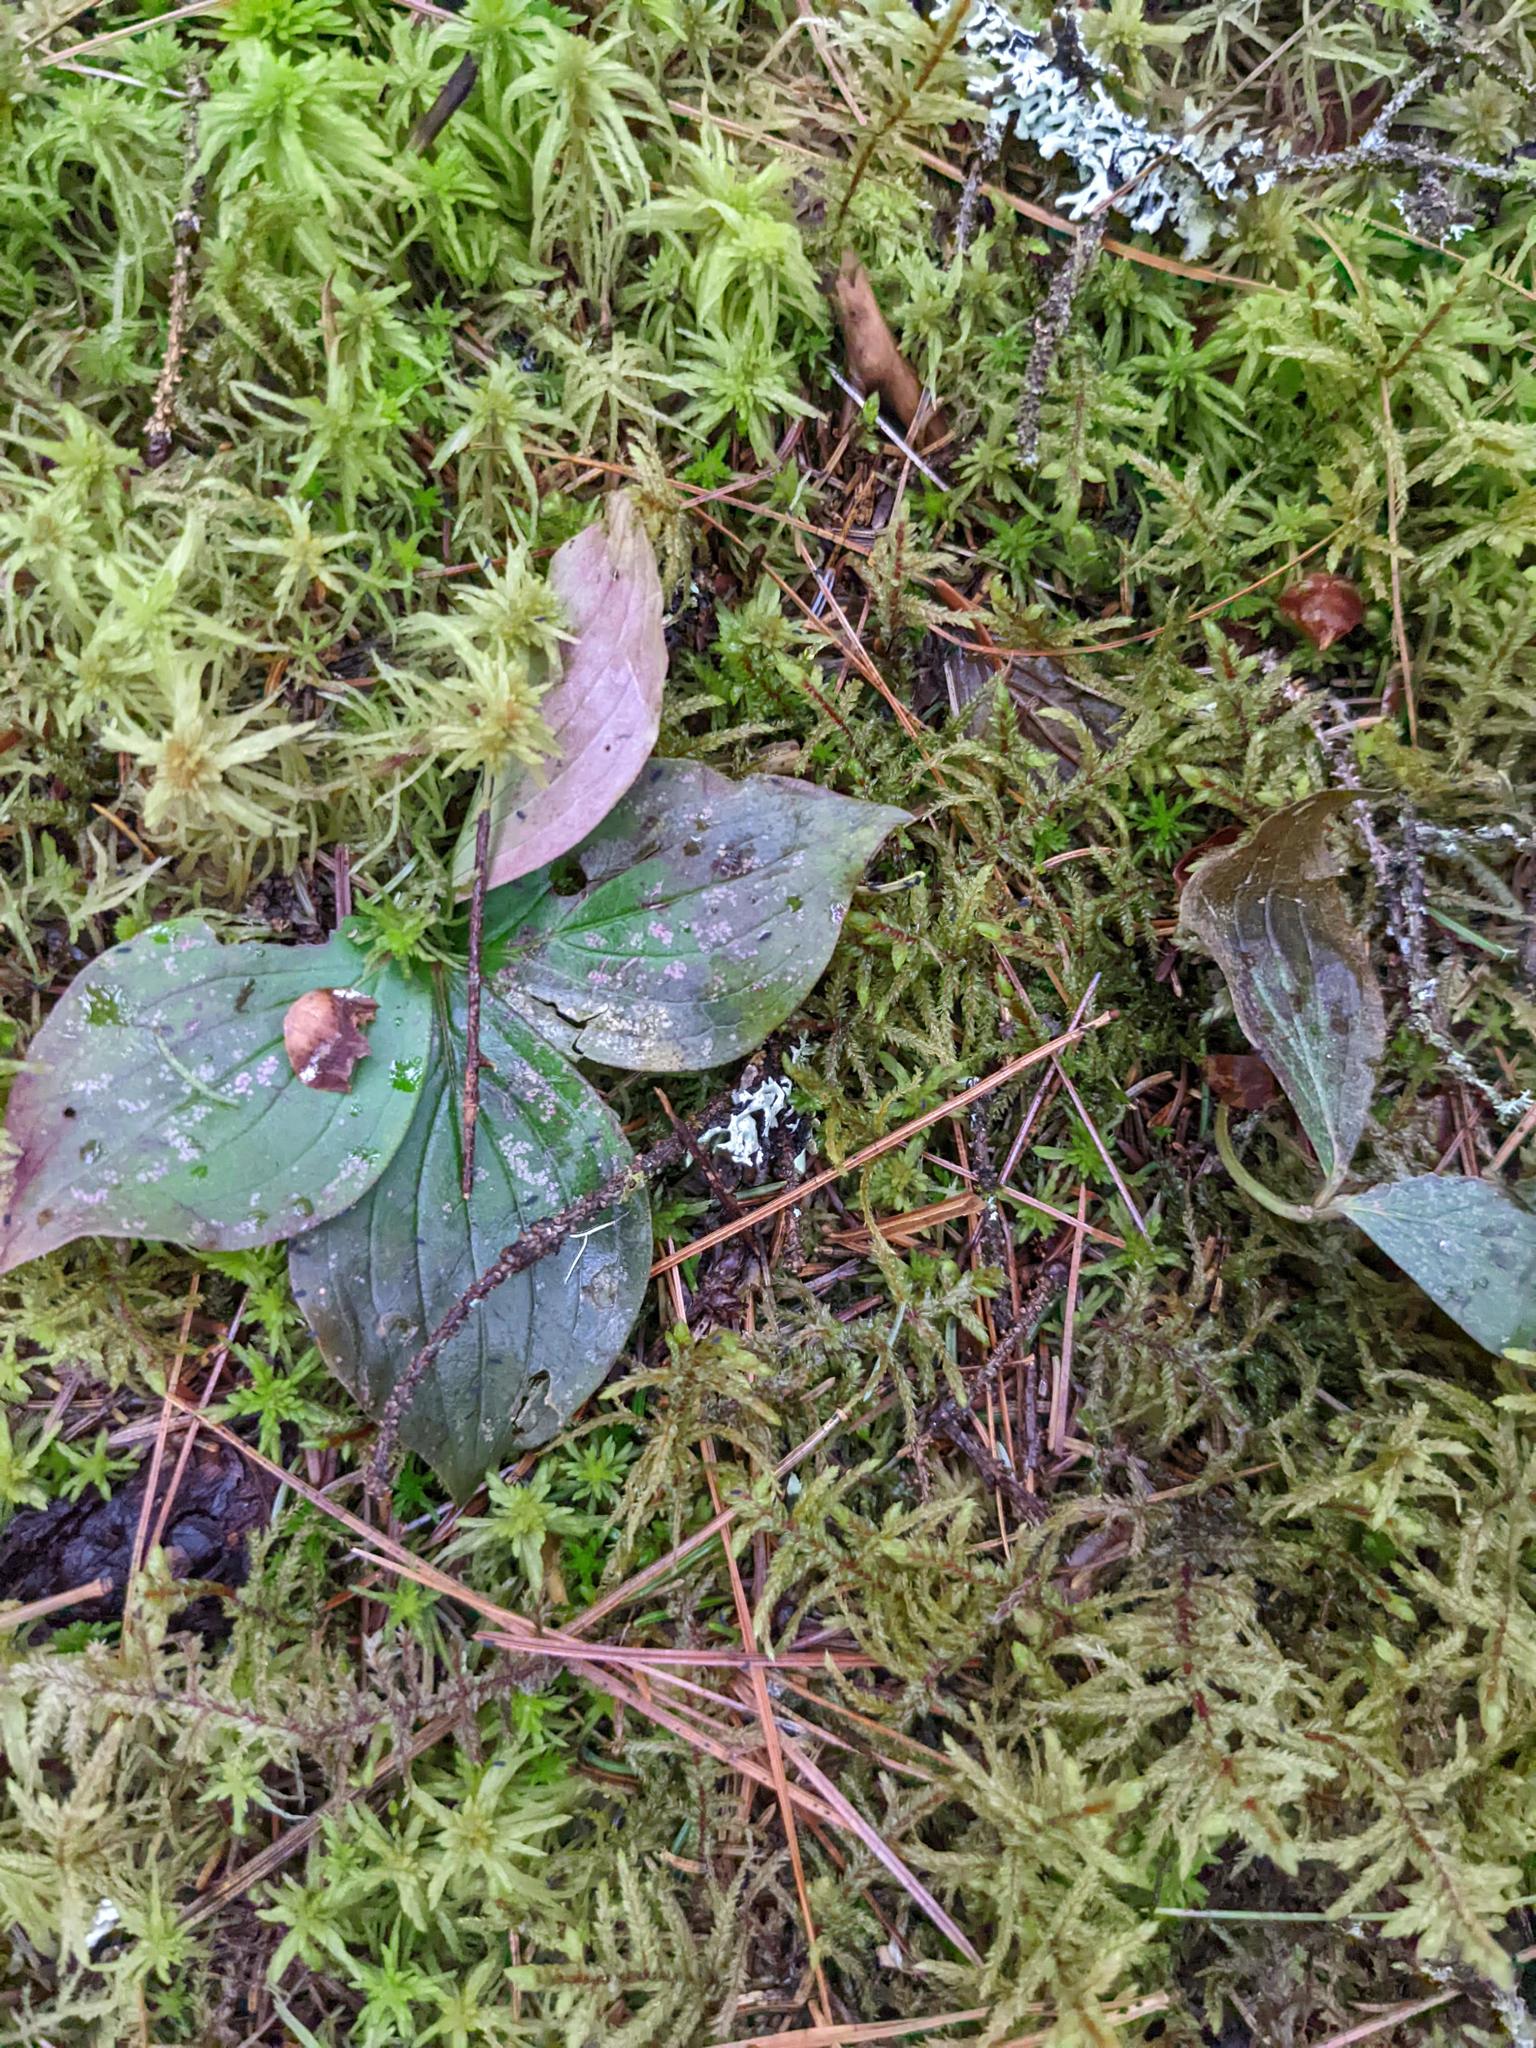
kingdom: Plantae
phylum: Tracheophyta
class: Magnoliopsida
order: Cornales
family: Cornaceae
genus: Cornus
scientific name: Cornus canadensis
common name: Creeping dogwood
